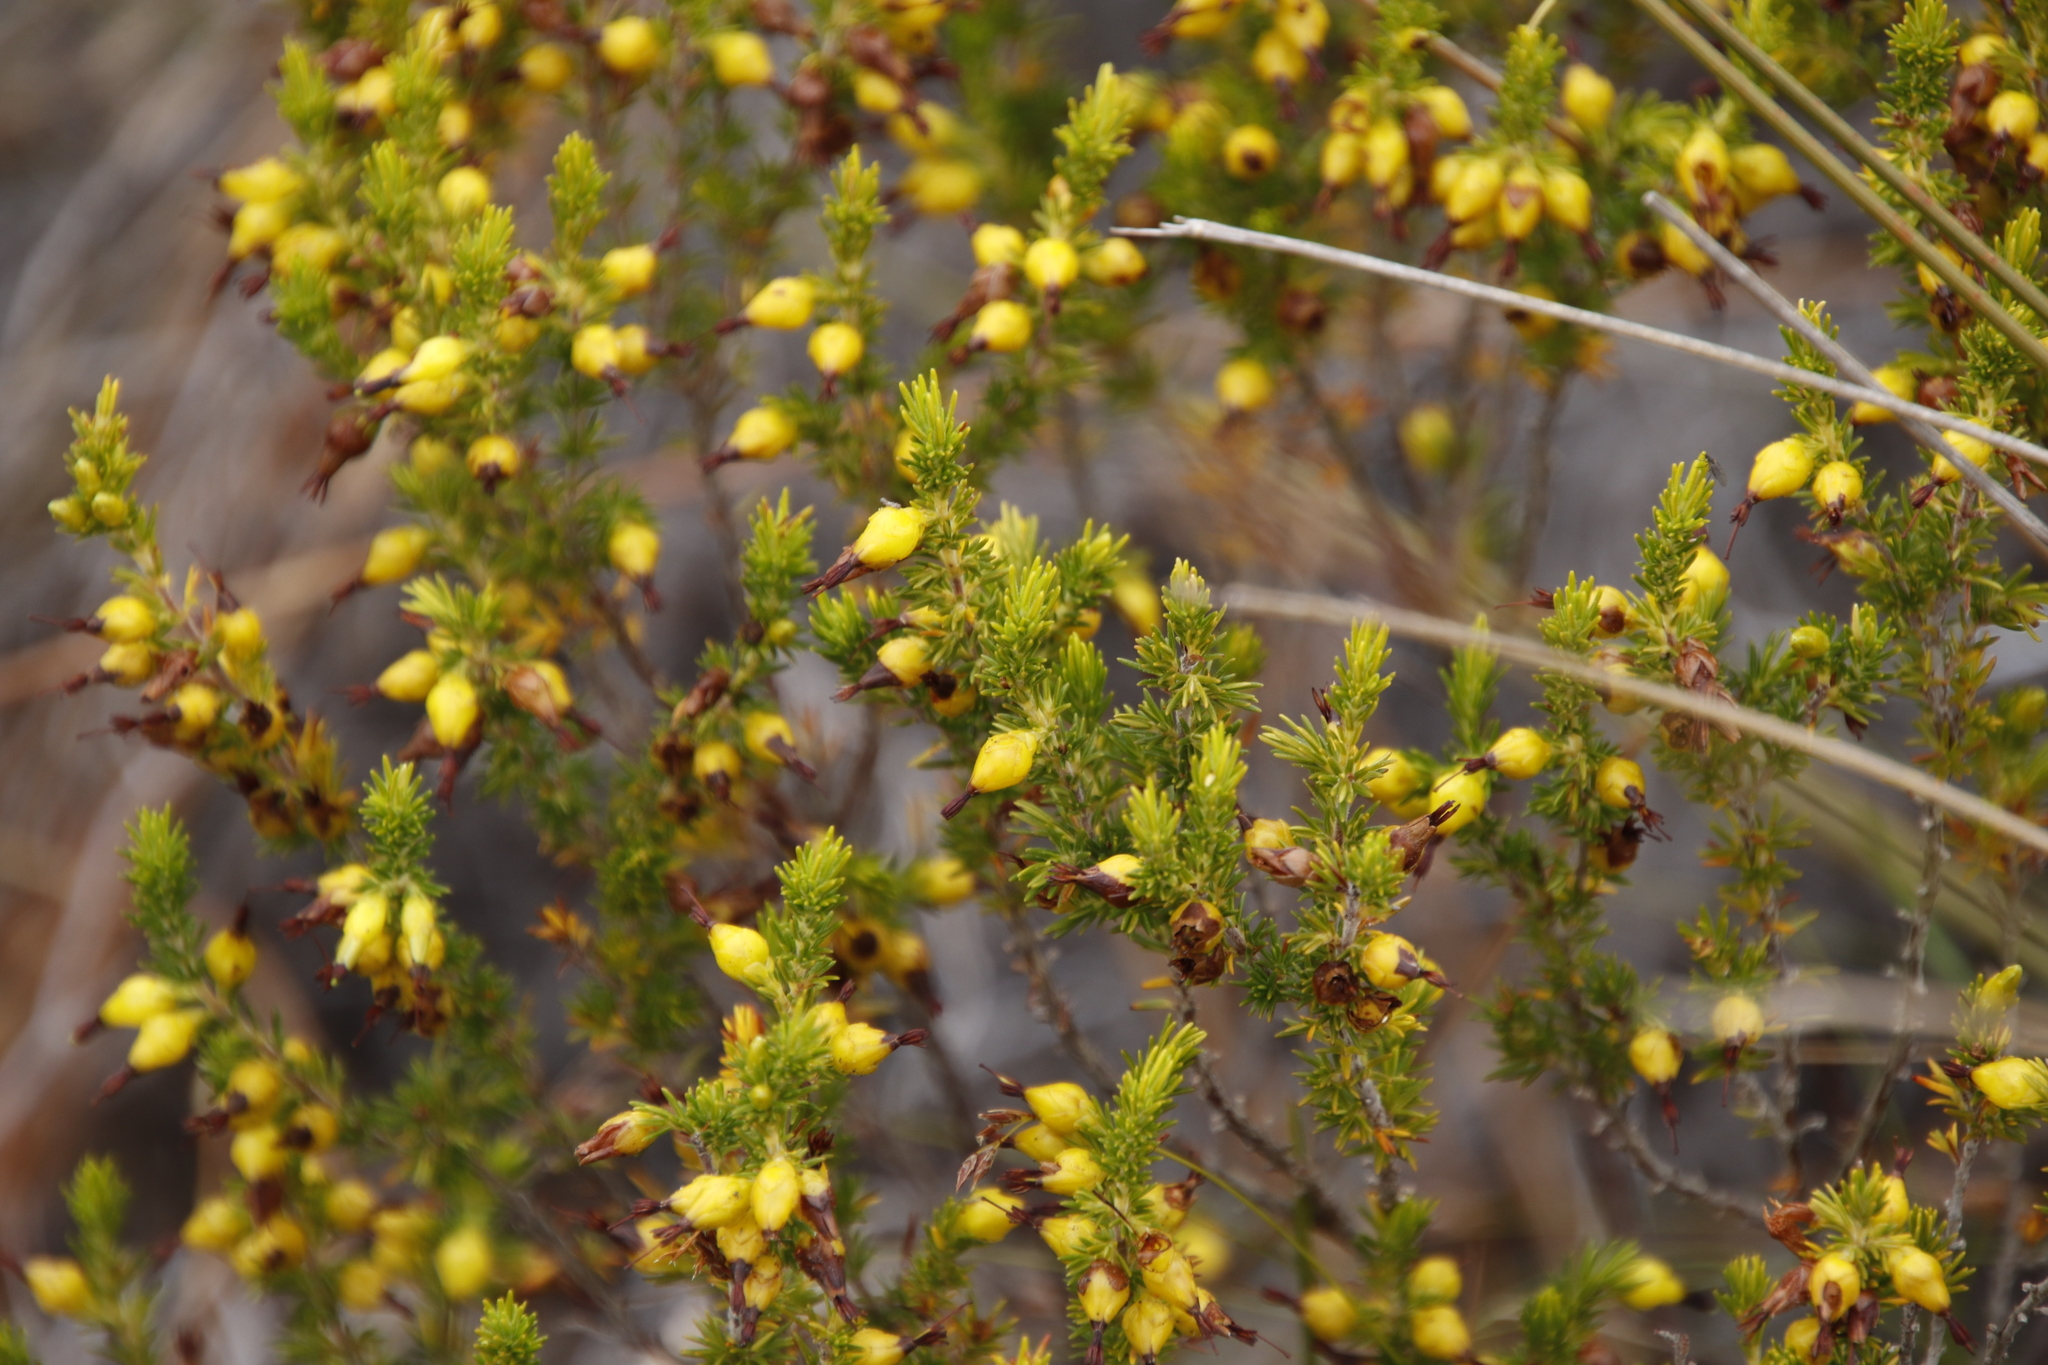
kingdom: Plantae
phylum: Tracheophyta
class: Magnoliopsida
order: Ericales
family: Ericaceae
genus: Erica
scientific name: Erica melastoma
